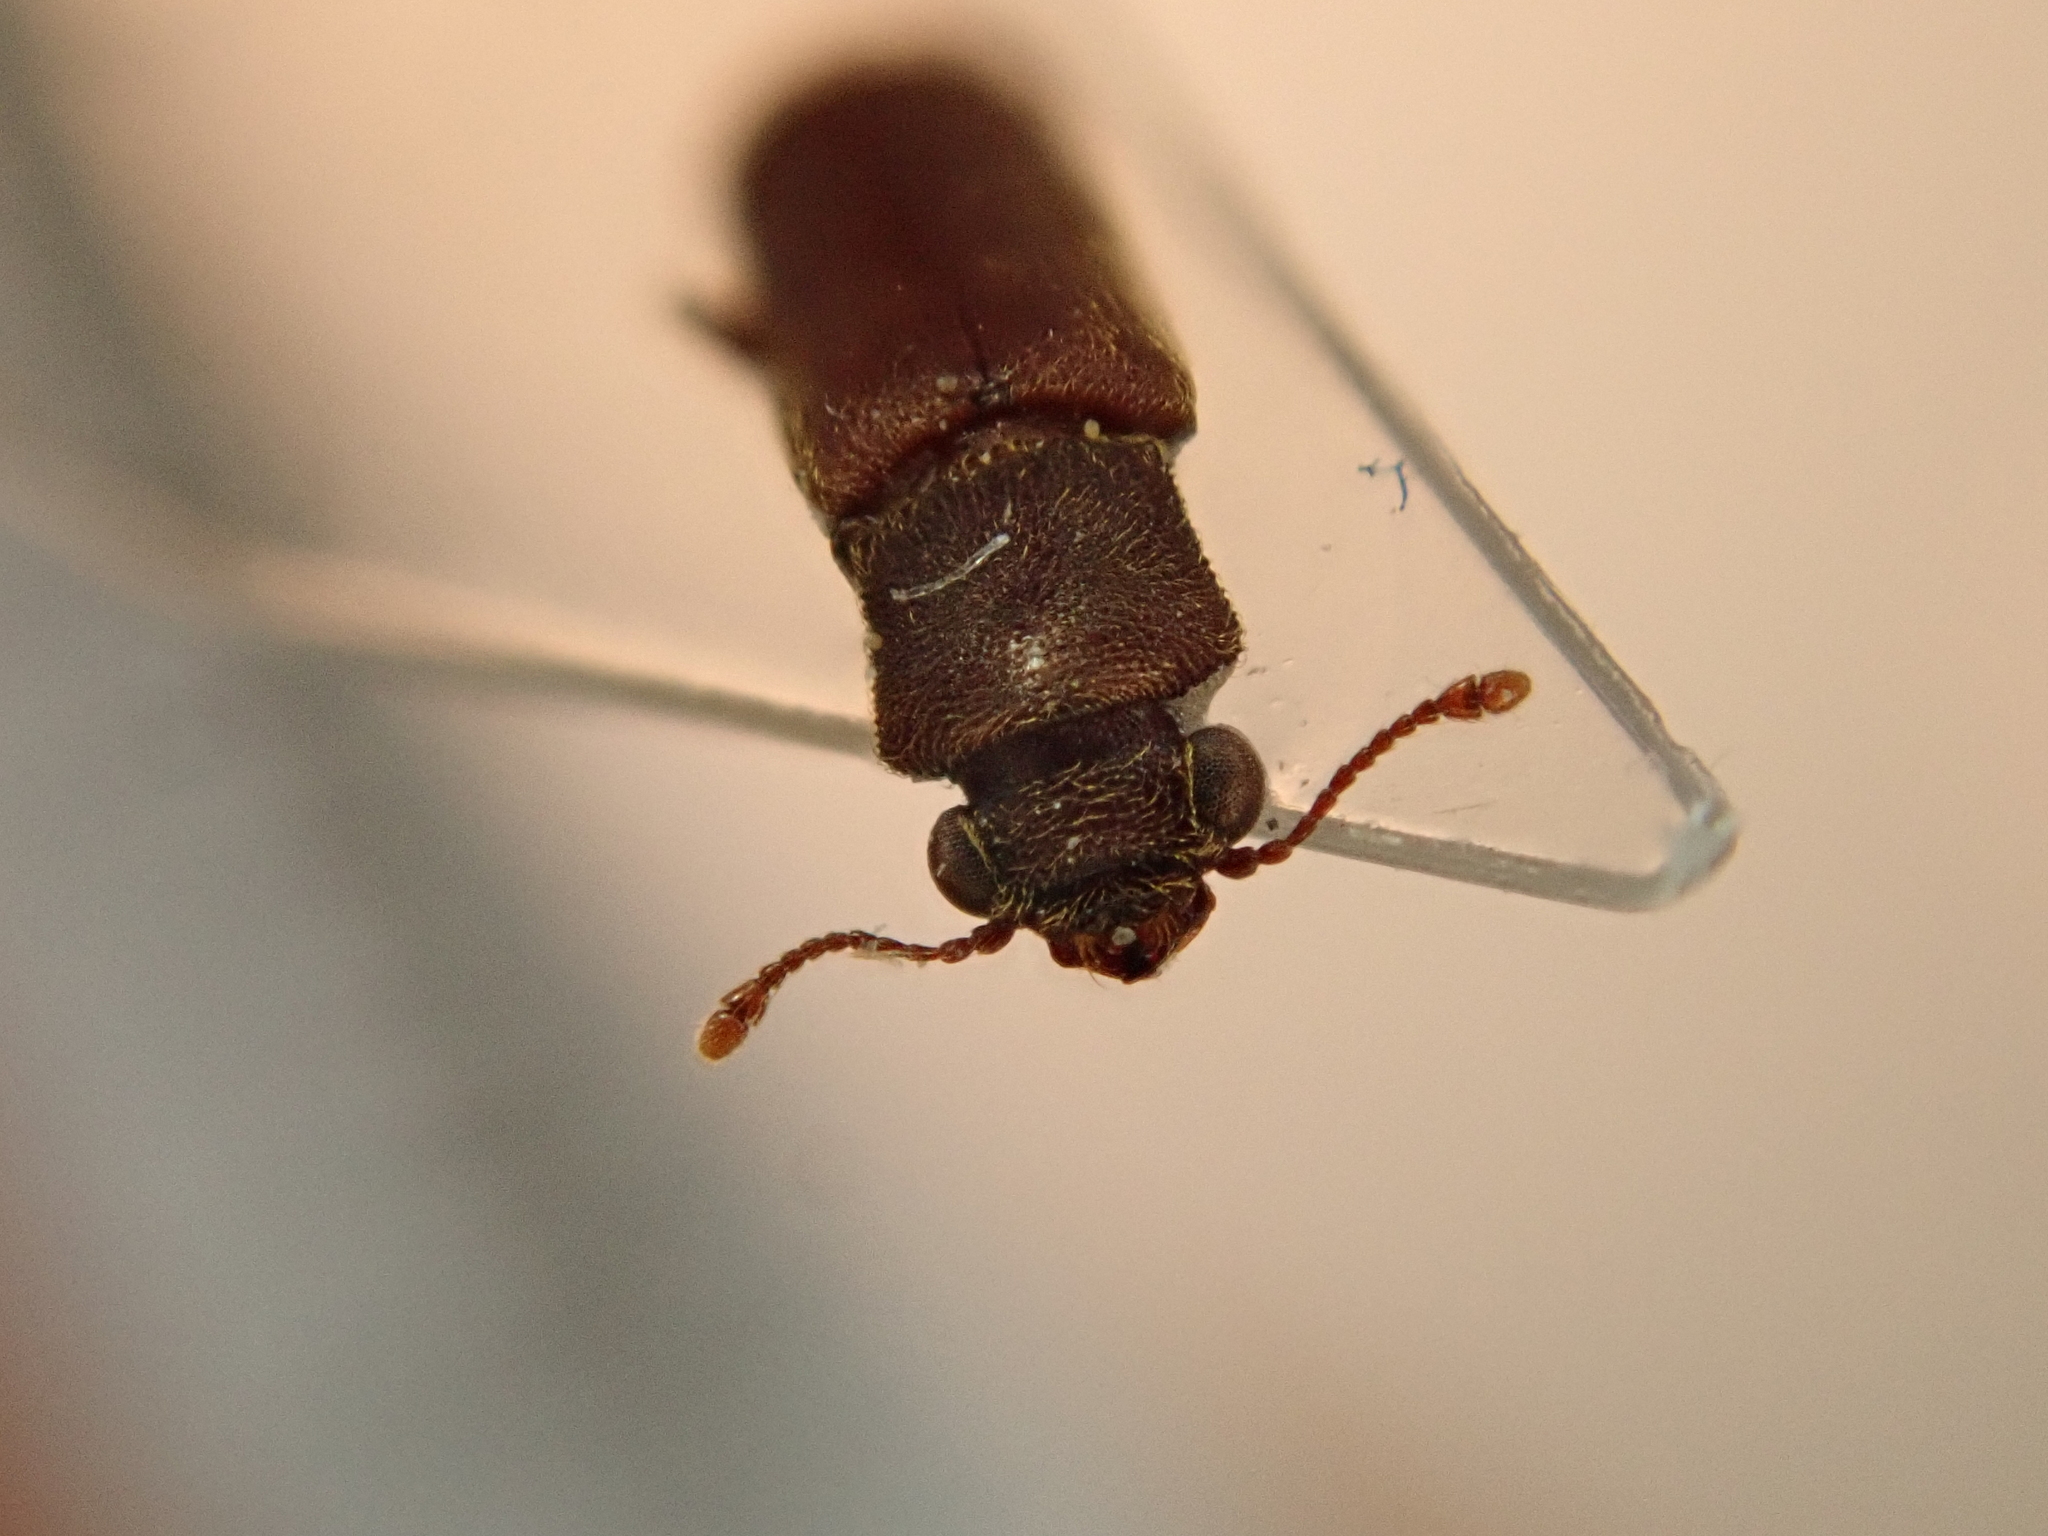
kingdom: Animalia
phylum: Arthropoda
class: Insecta
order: Coleoptera
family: Bostrichidae
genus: Lyctus
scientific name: Lyctus brunneus
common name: Brown powderpost beetle
